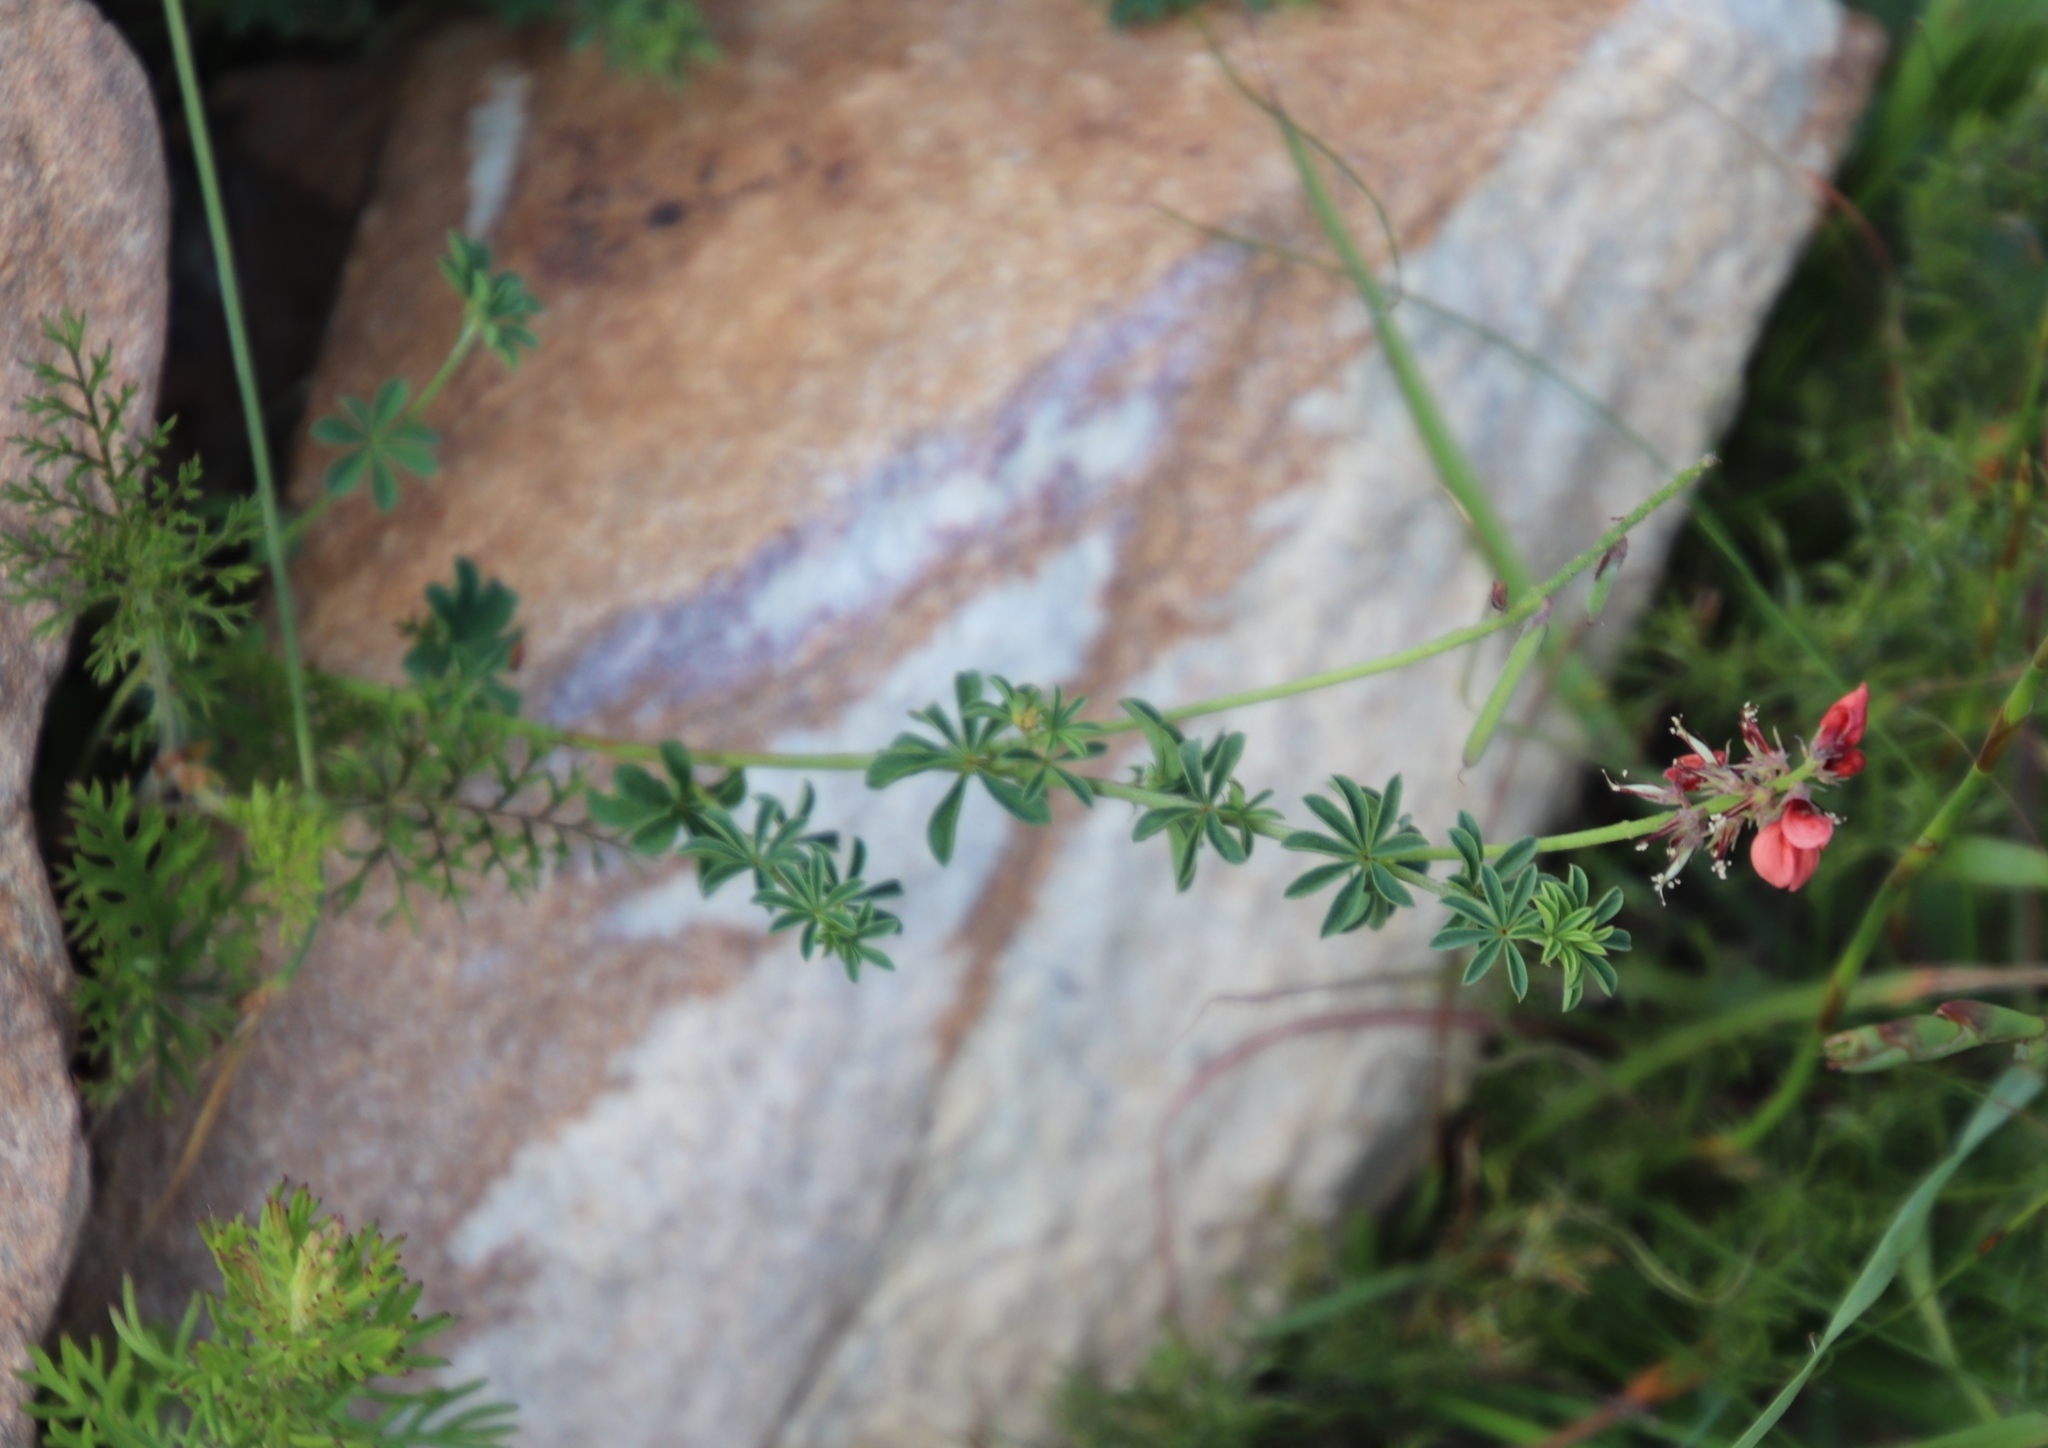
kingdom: Plantae
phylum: Tracheophyta
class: Magnoliopsida
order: Fabales
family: Fabaceae
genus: Indigofera
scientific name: Indigofera digitata
